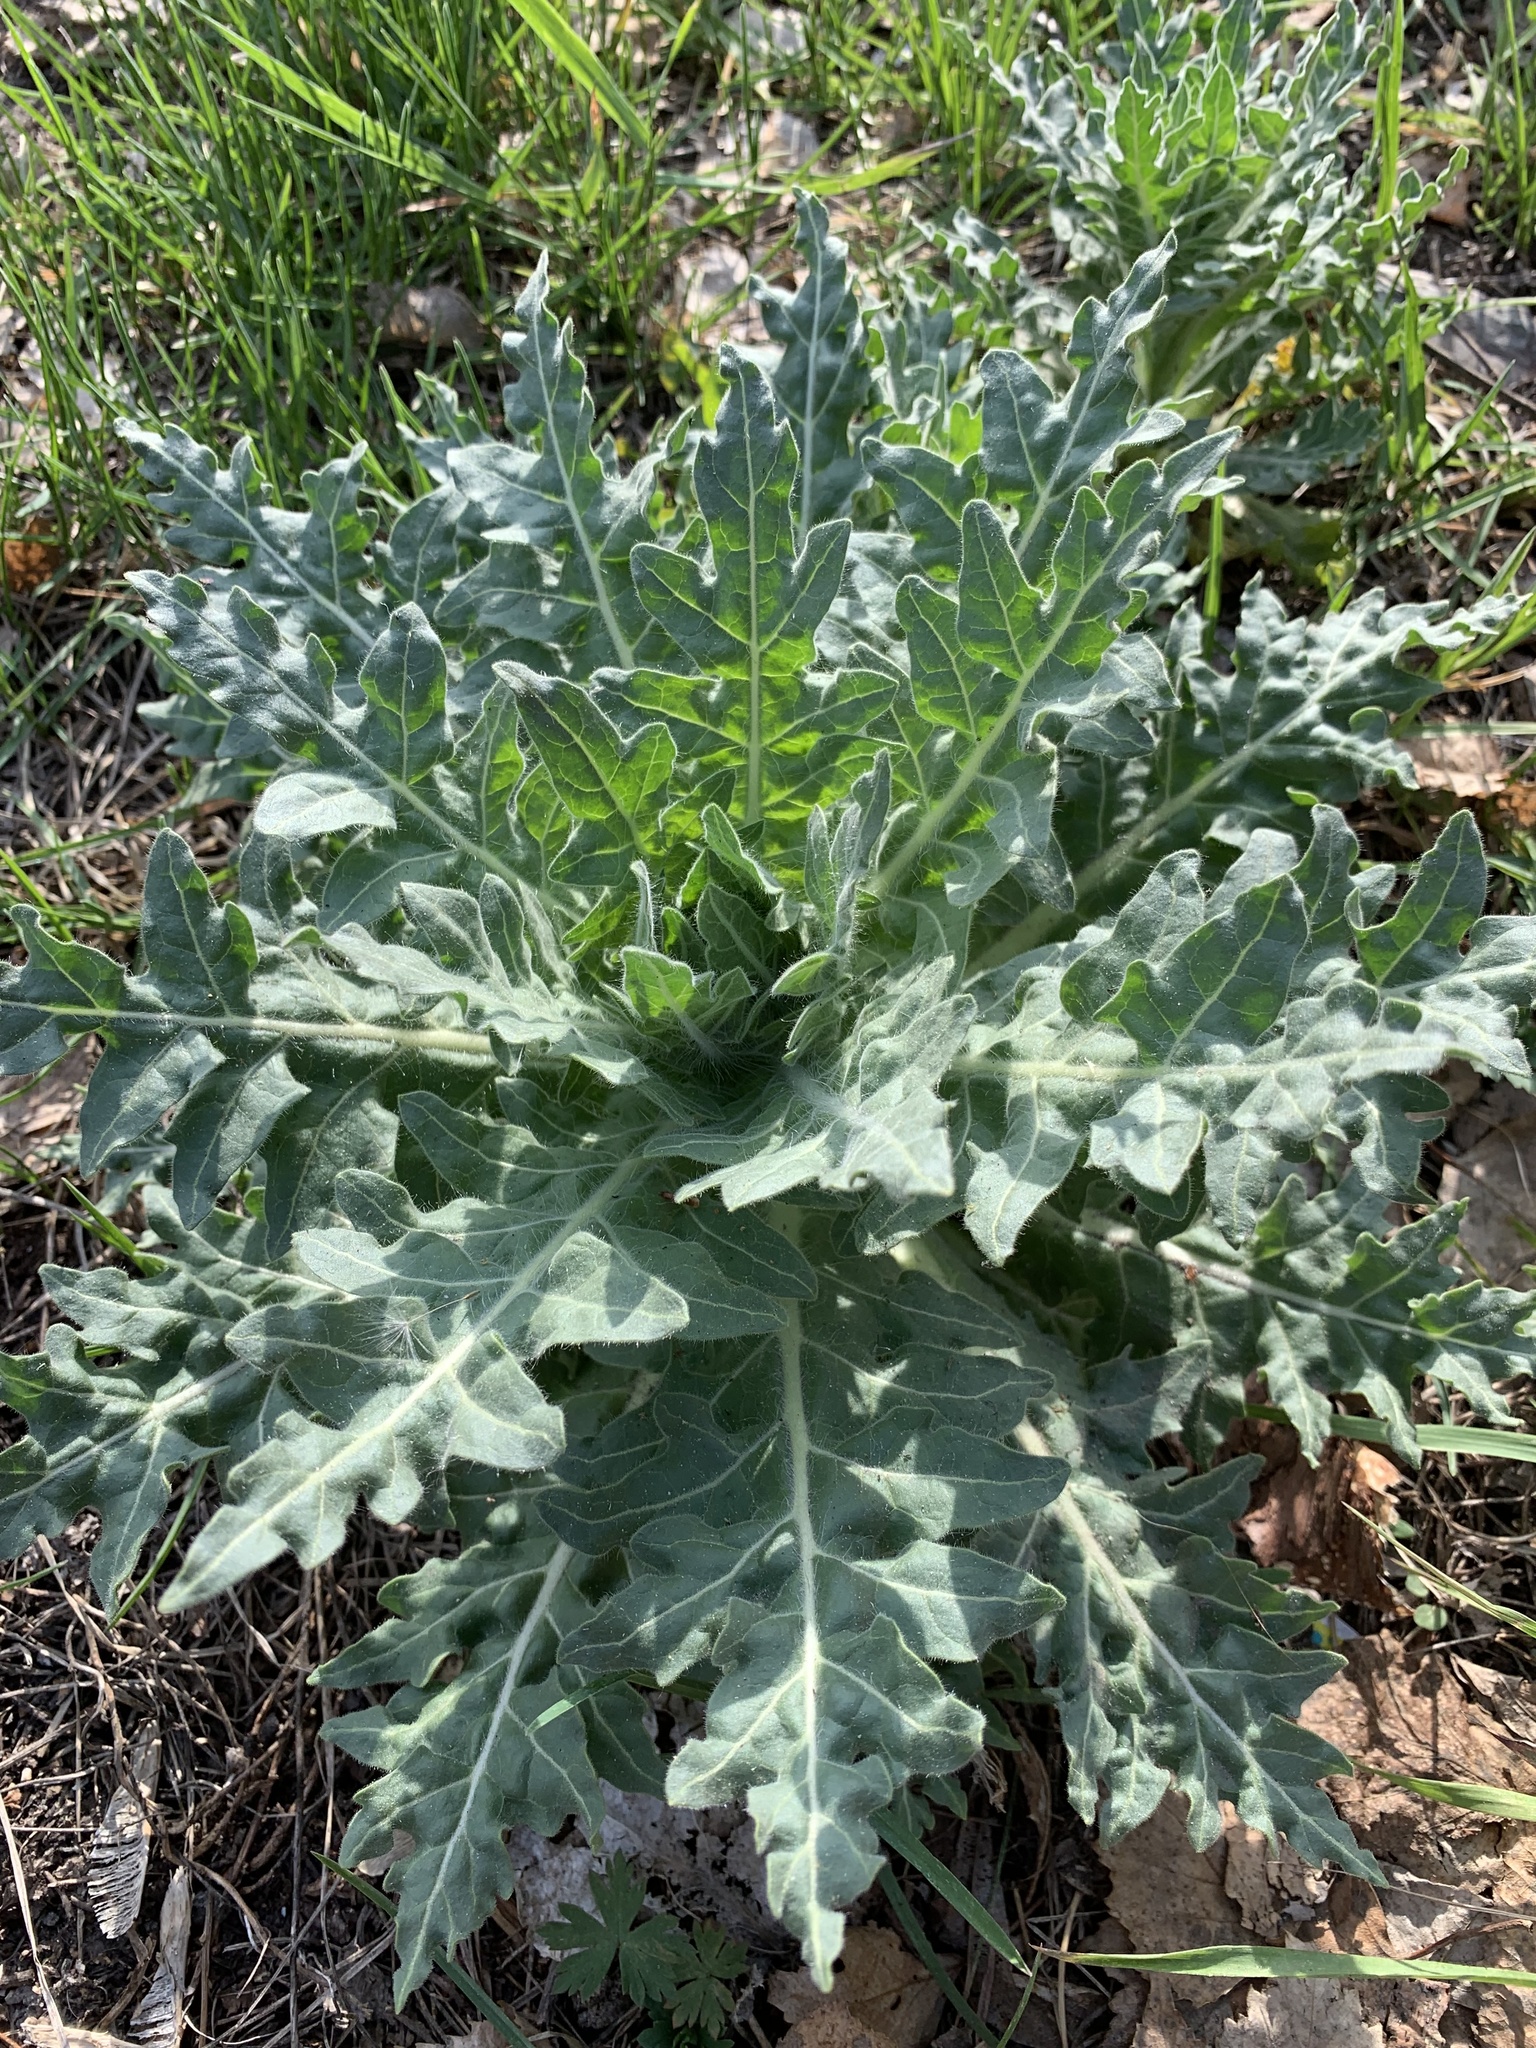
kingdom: Plantae
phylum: Tracheophyta
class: Magnoliopsida
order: Solanales
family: Solanaceae
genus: Hyoscyamus
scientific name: Hyoscyamus niger
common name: Henbane
